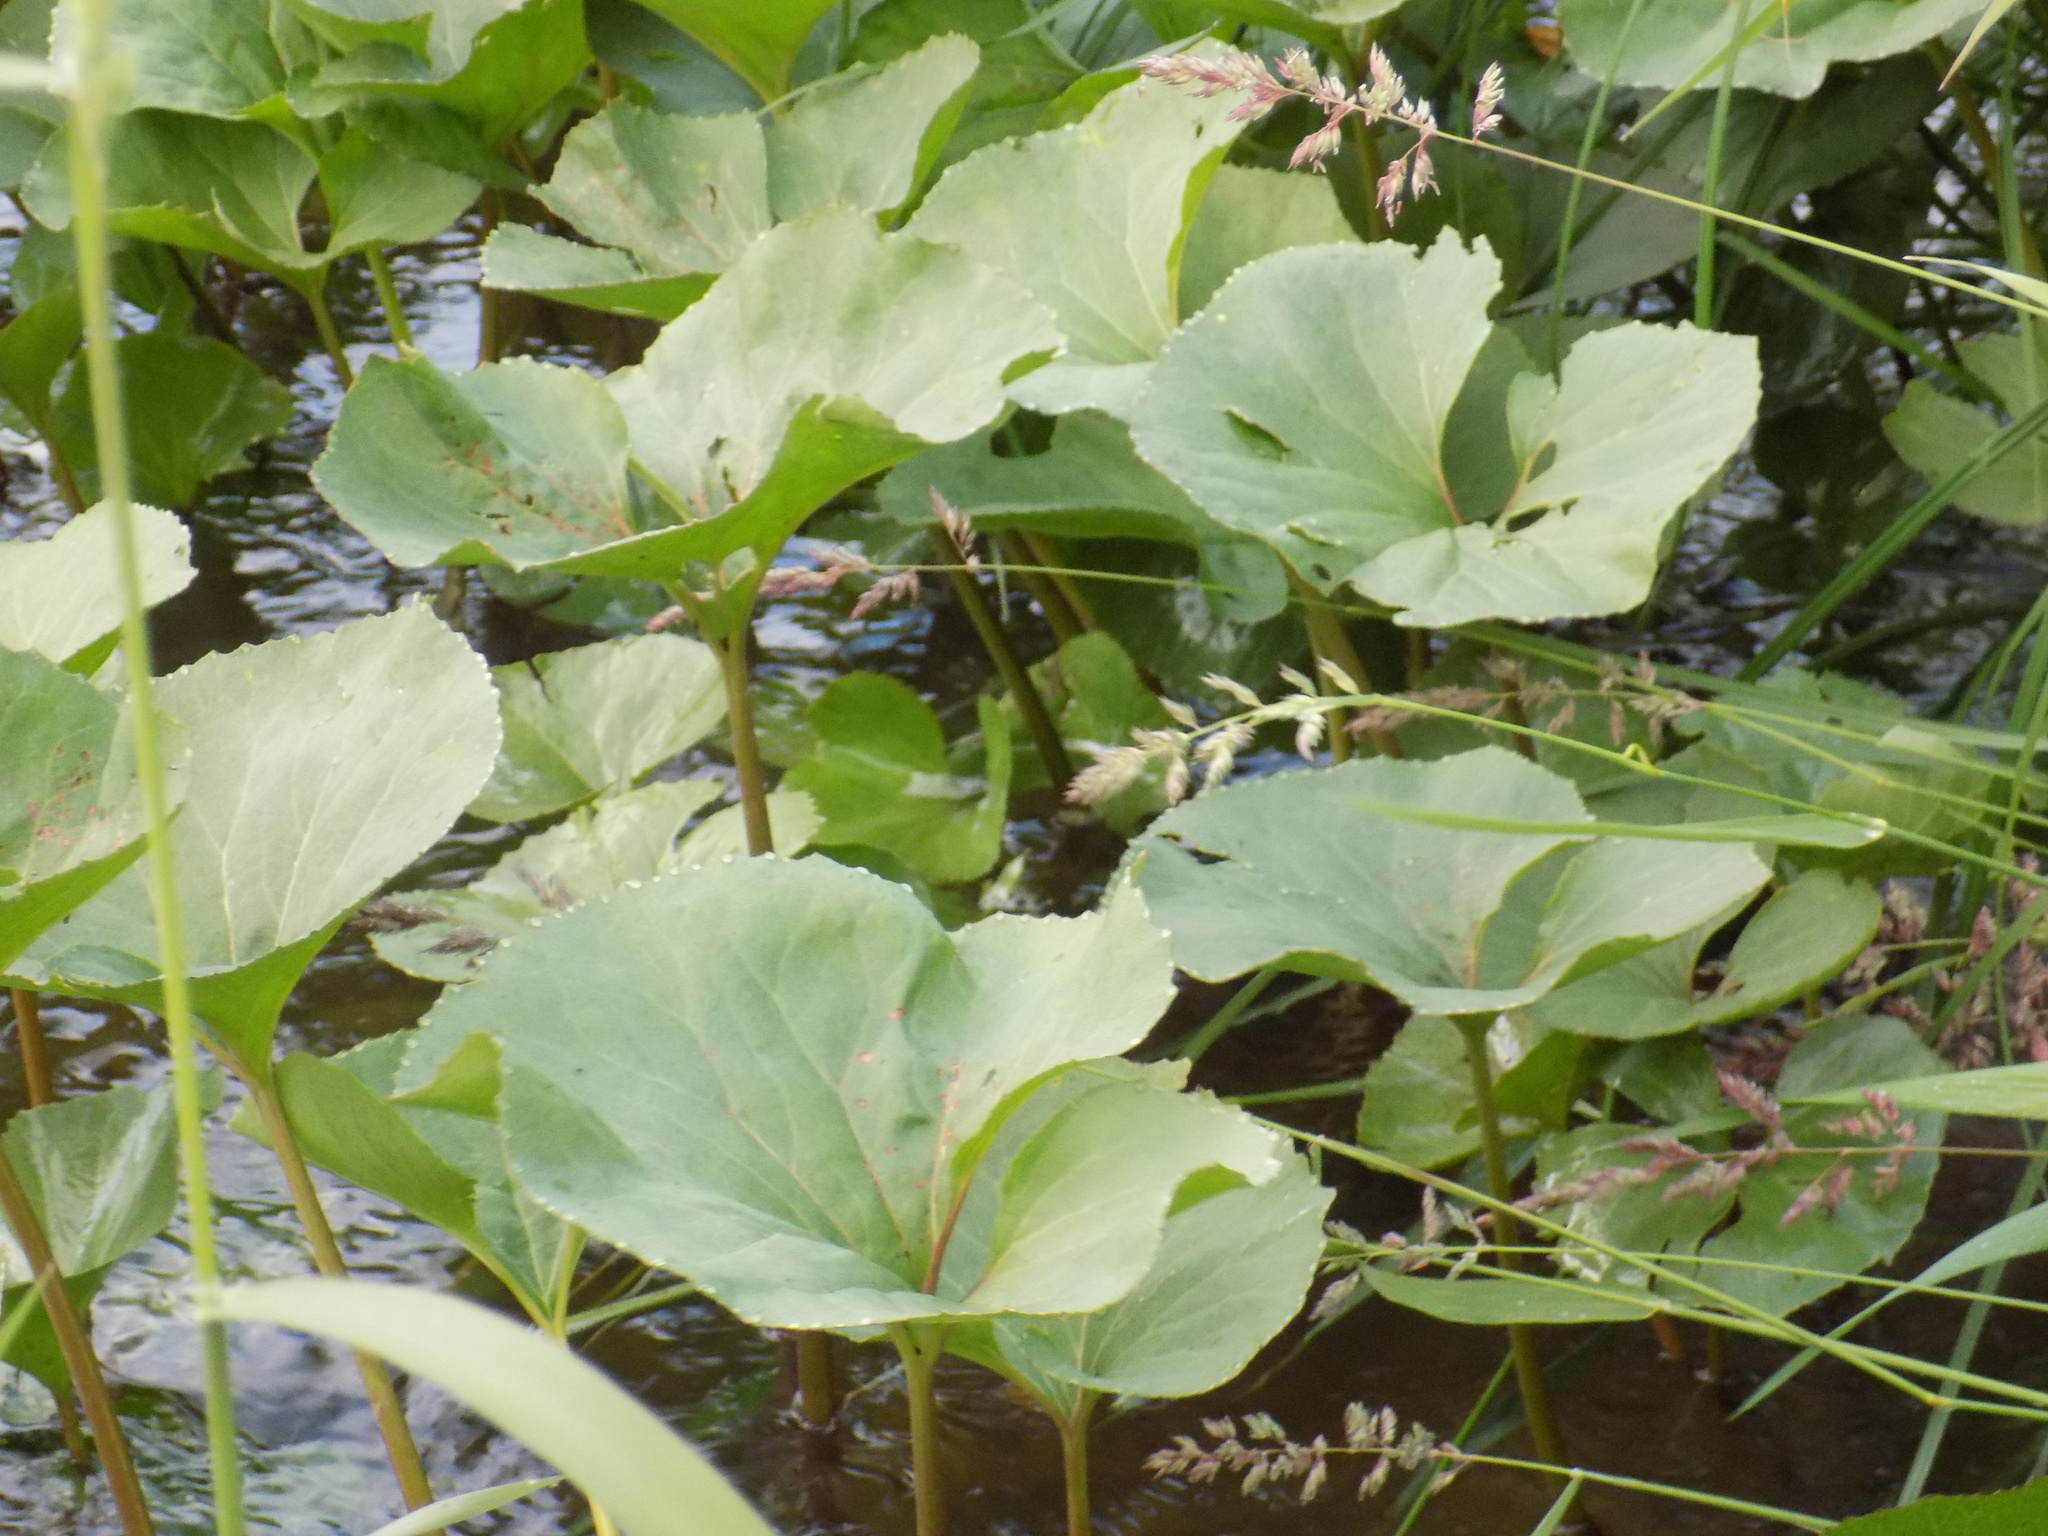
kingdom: Plantae
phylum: Tracheophyta
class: Magnoliopsida
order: Asterales
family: Asteraceae
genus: Petasites
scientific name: Petasites radiatus
